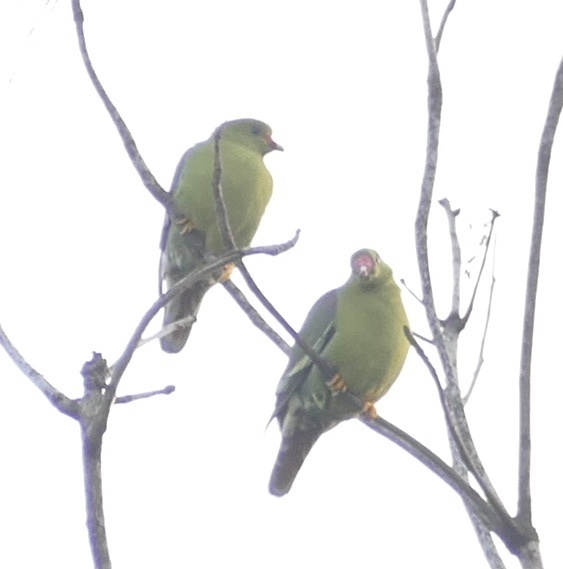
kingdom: Animalia
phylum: Chordata
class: Aves
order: Columbiformes
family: Columbidae
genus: Treron
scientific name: Treron calvus
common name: African green pigeon
